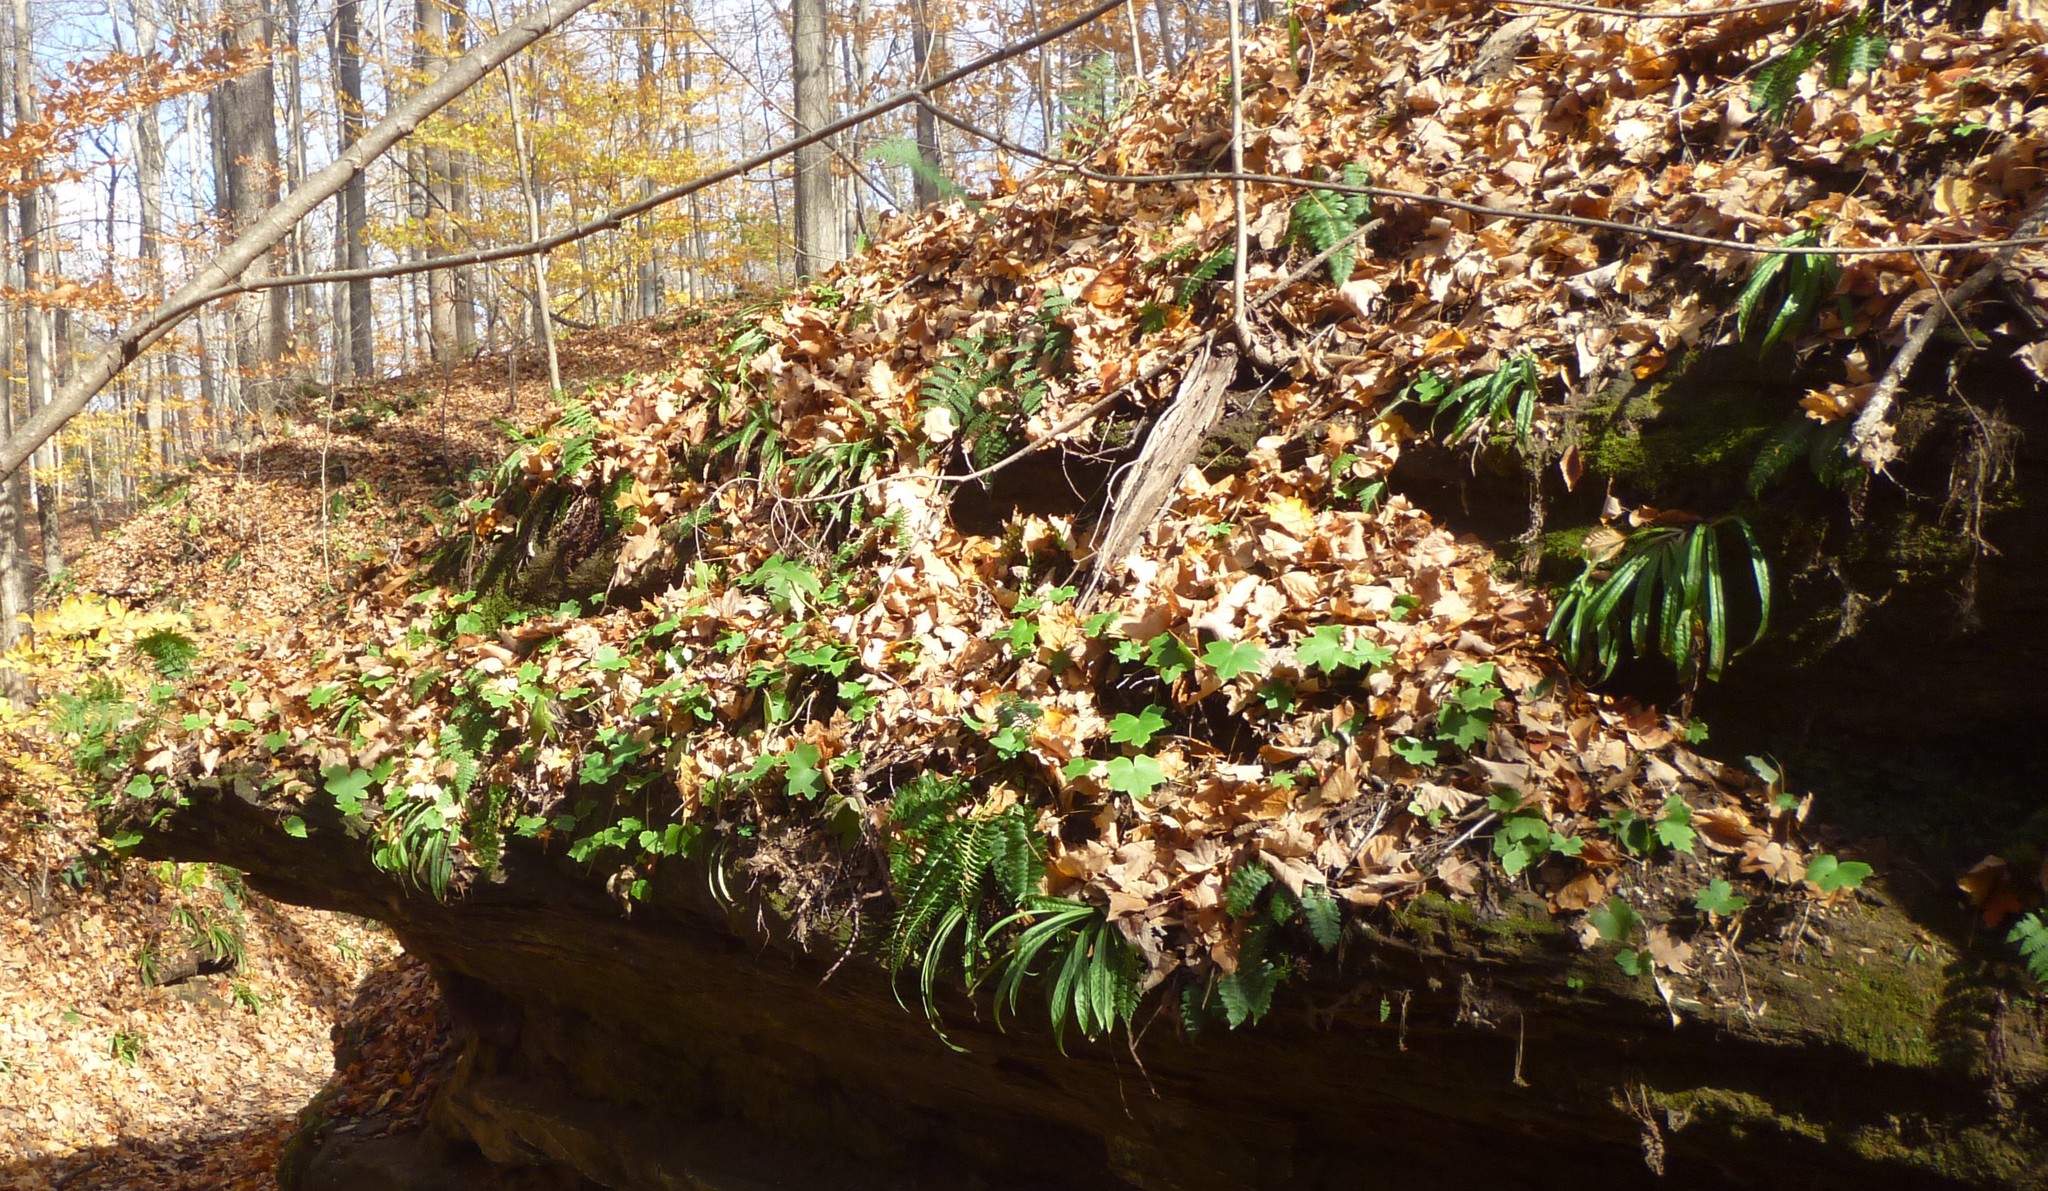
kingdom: Plantae
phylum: Tracheophyta
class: Liliopsida
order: Poales
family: Cyperaceae
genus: Carex
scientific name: Carex plantaginea
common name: Plantain-leaved sedge
